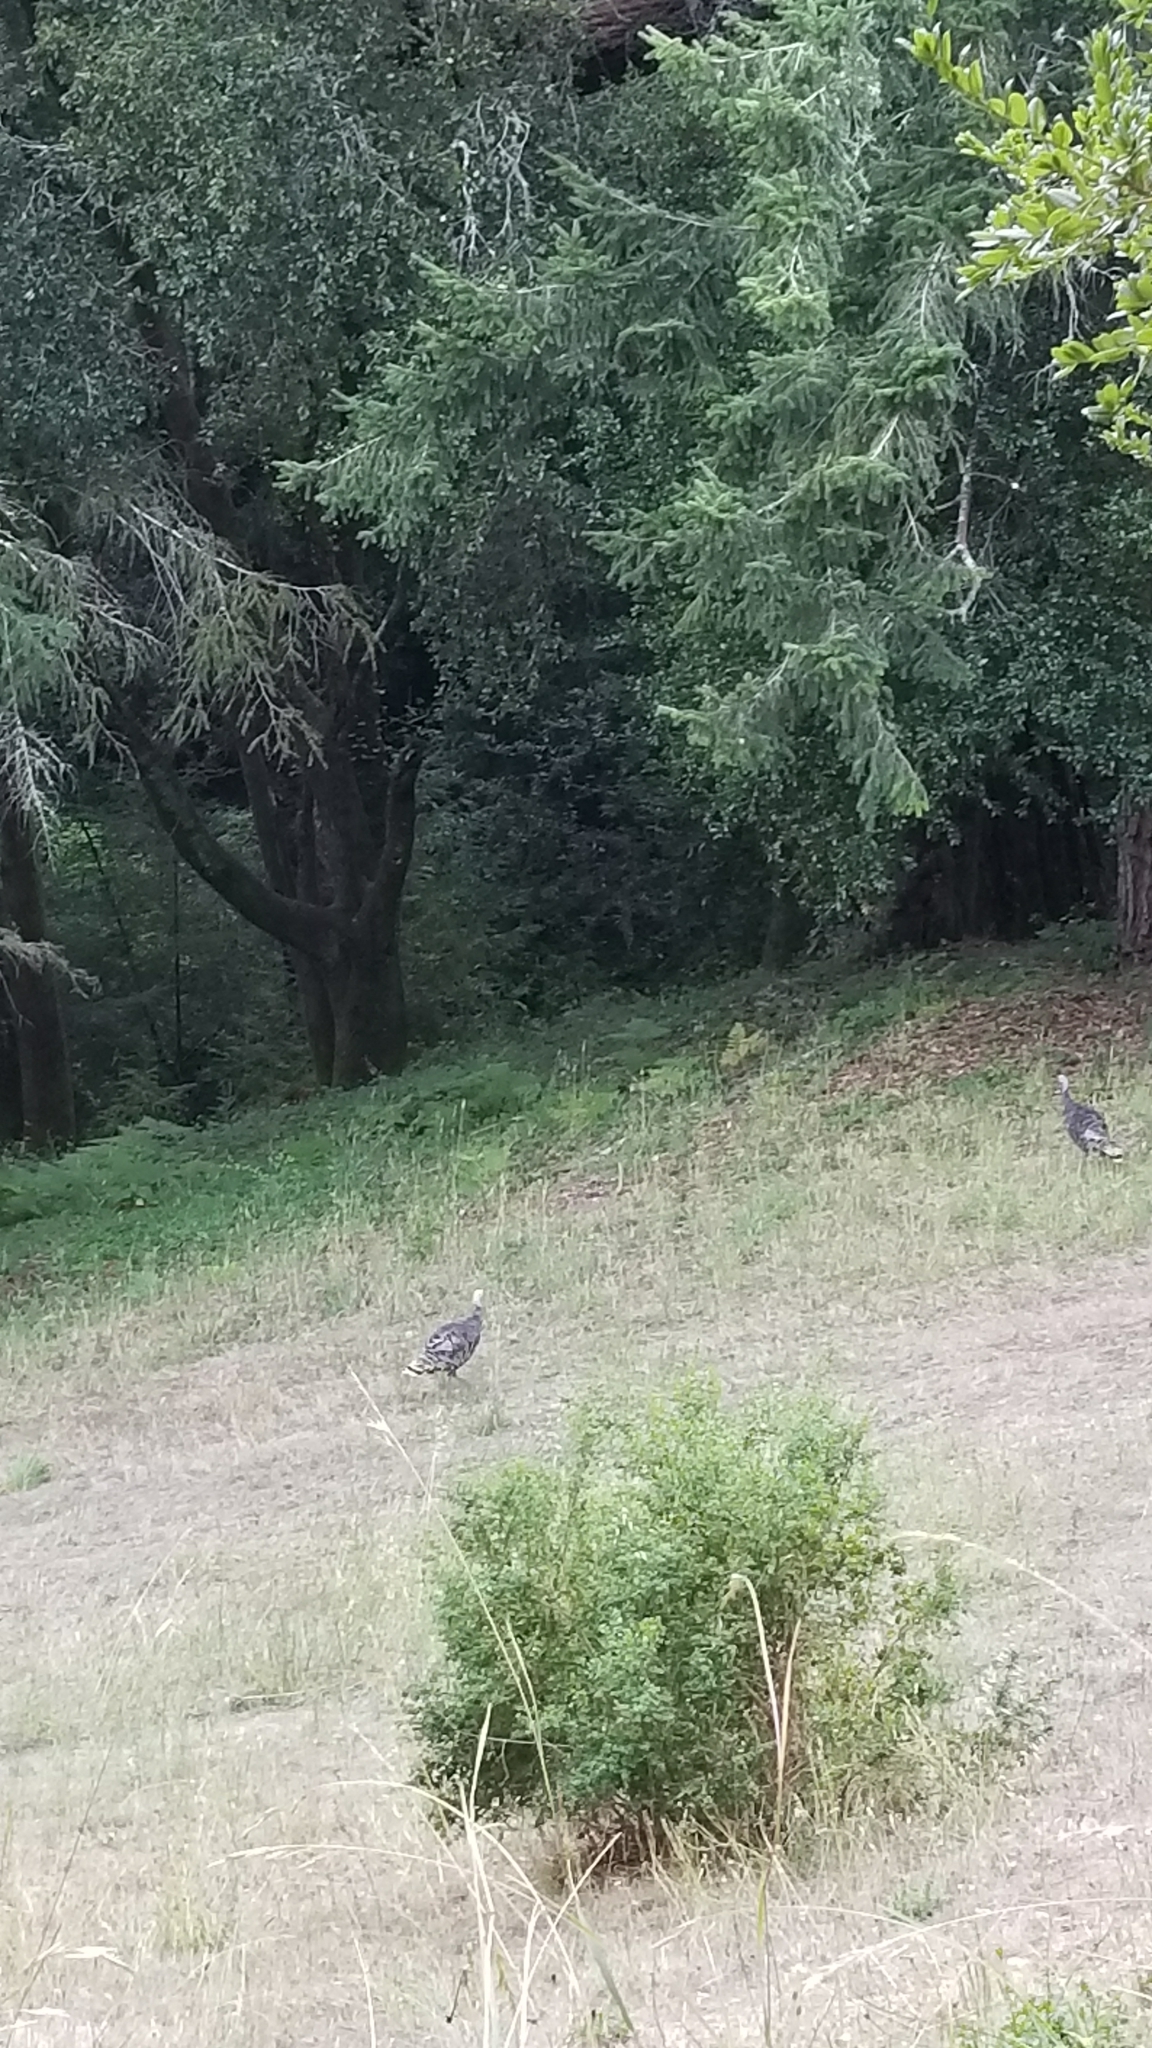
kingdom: Animalia
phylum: Chordata
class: Aves
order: Galliformes
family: Phasianidae
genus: Meleagris
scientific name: Meleagris gallopavo
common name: Wild turkey
